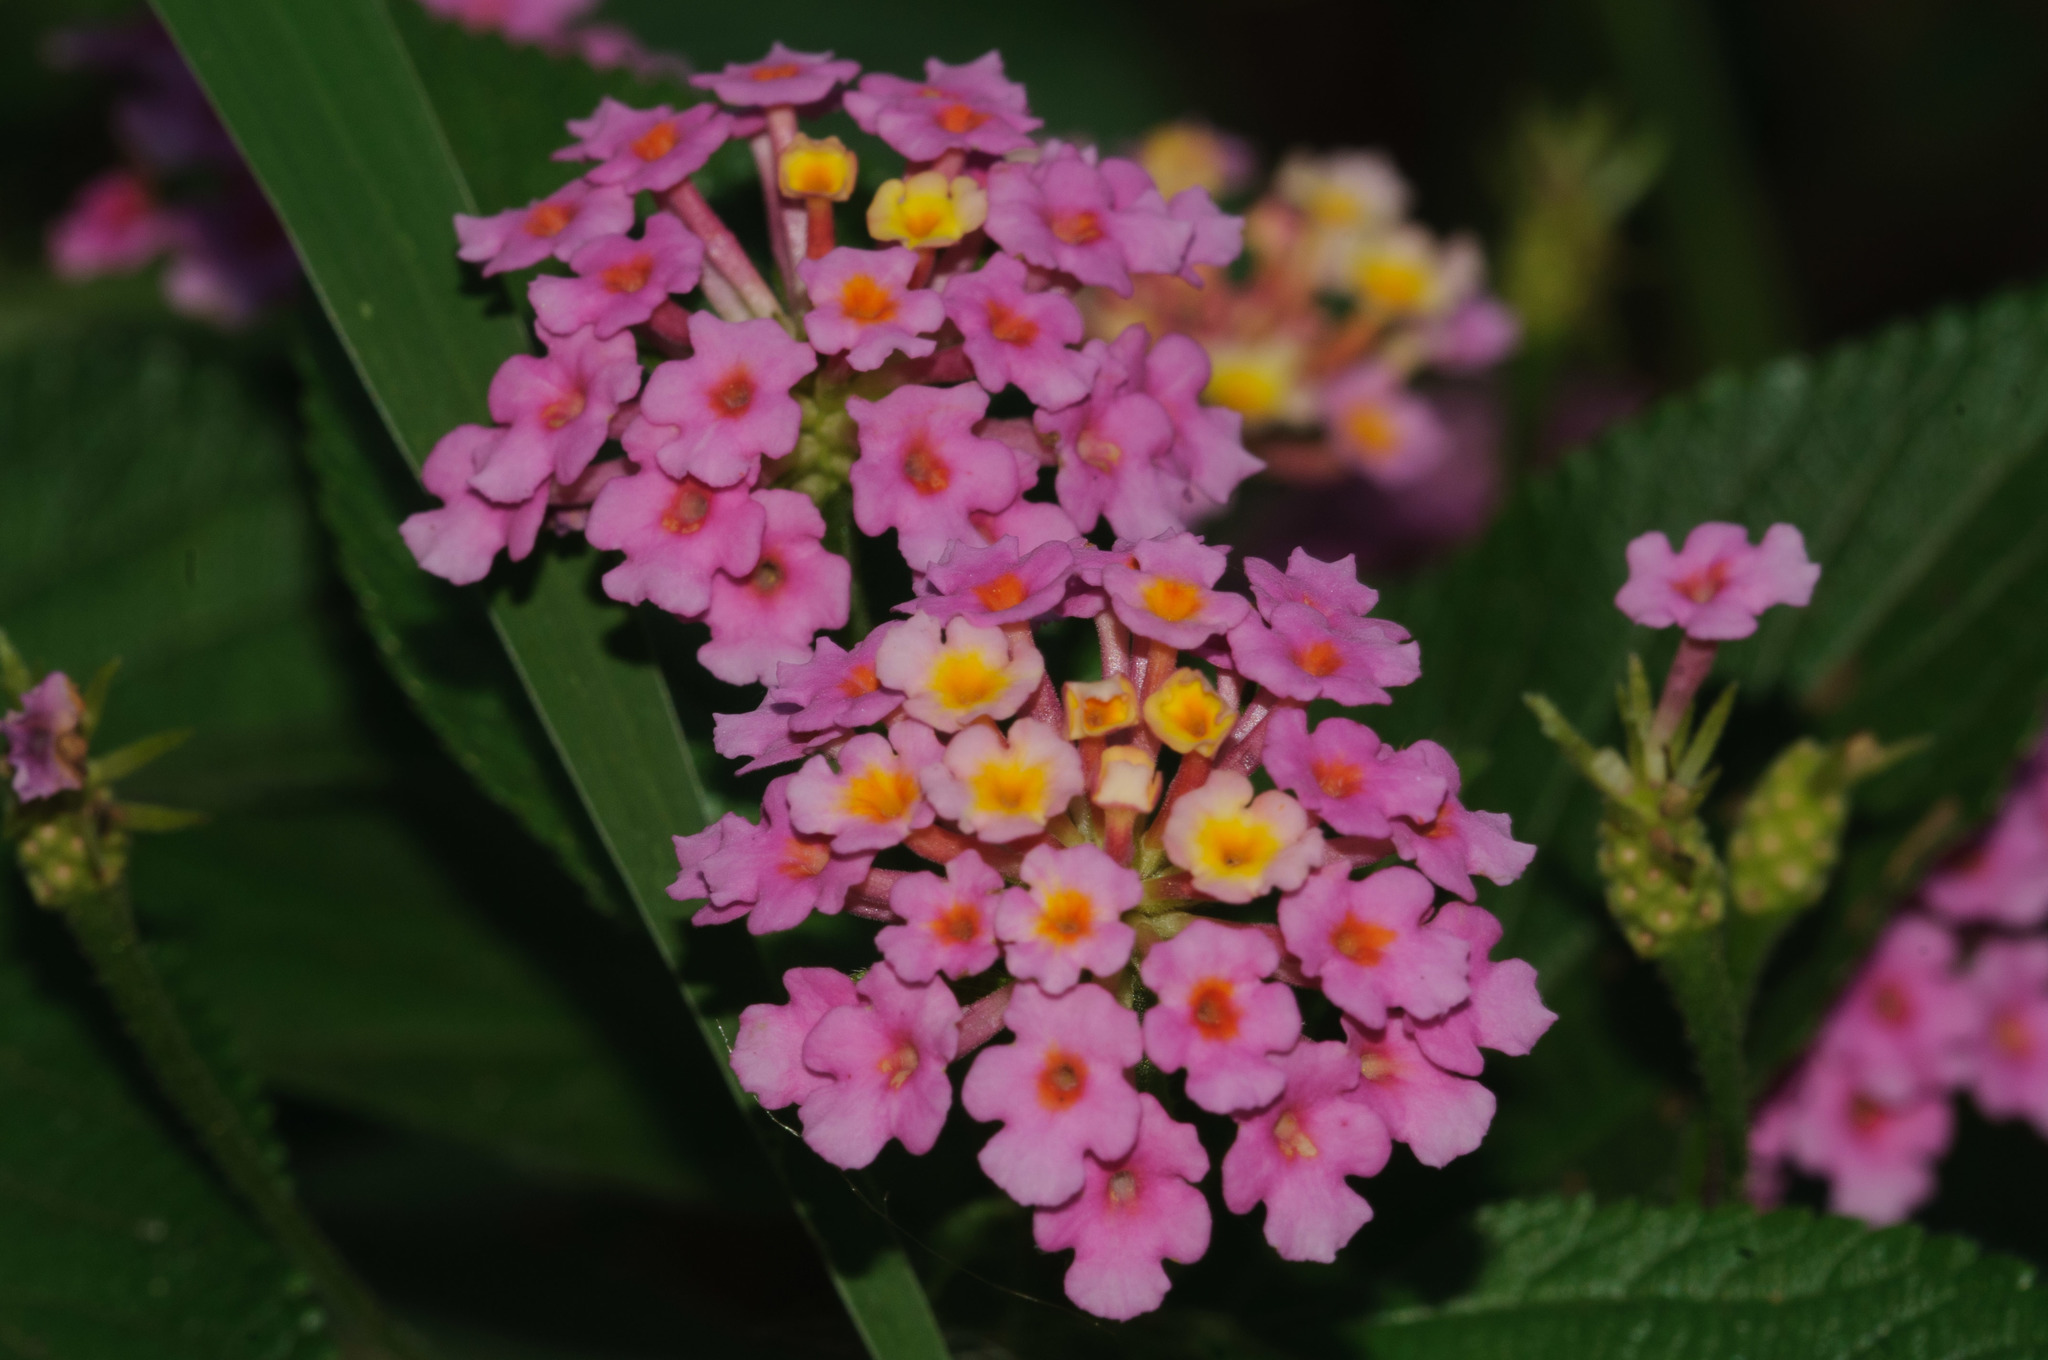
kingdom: Plantae
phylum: Tracheophyta
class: Magnoliopsida
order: Lamiales
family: Verbenaceae
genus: Lantana
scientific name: Lantana camara
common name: Lantana
